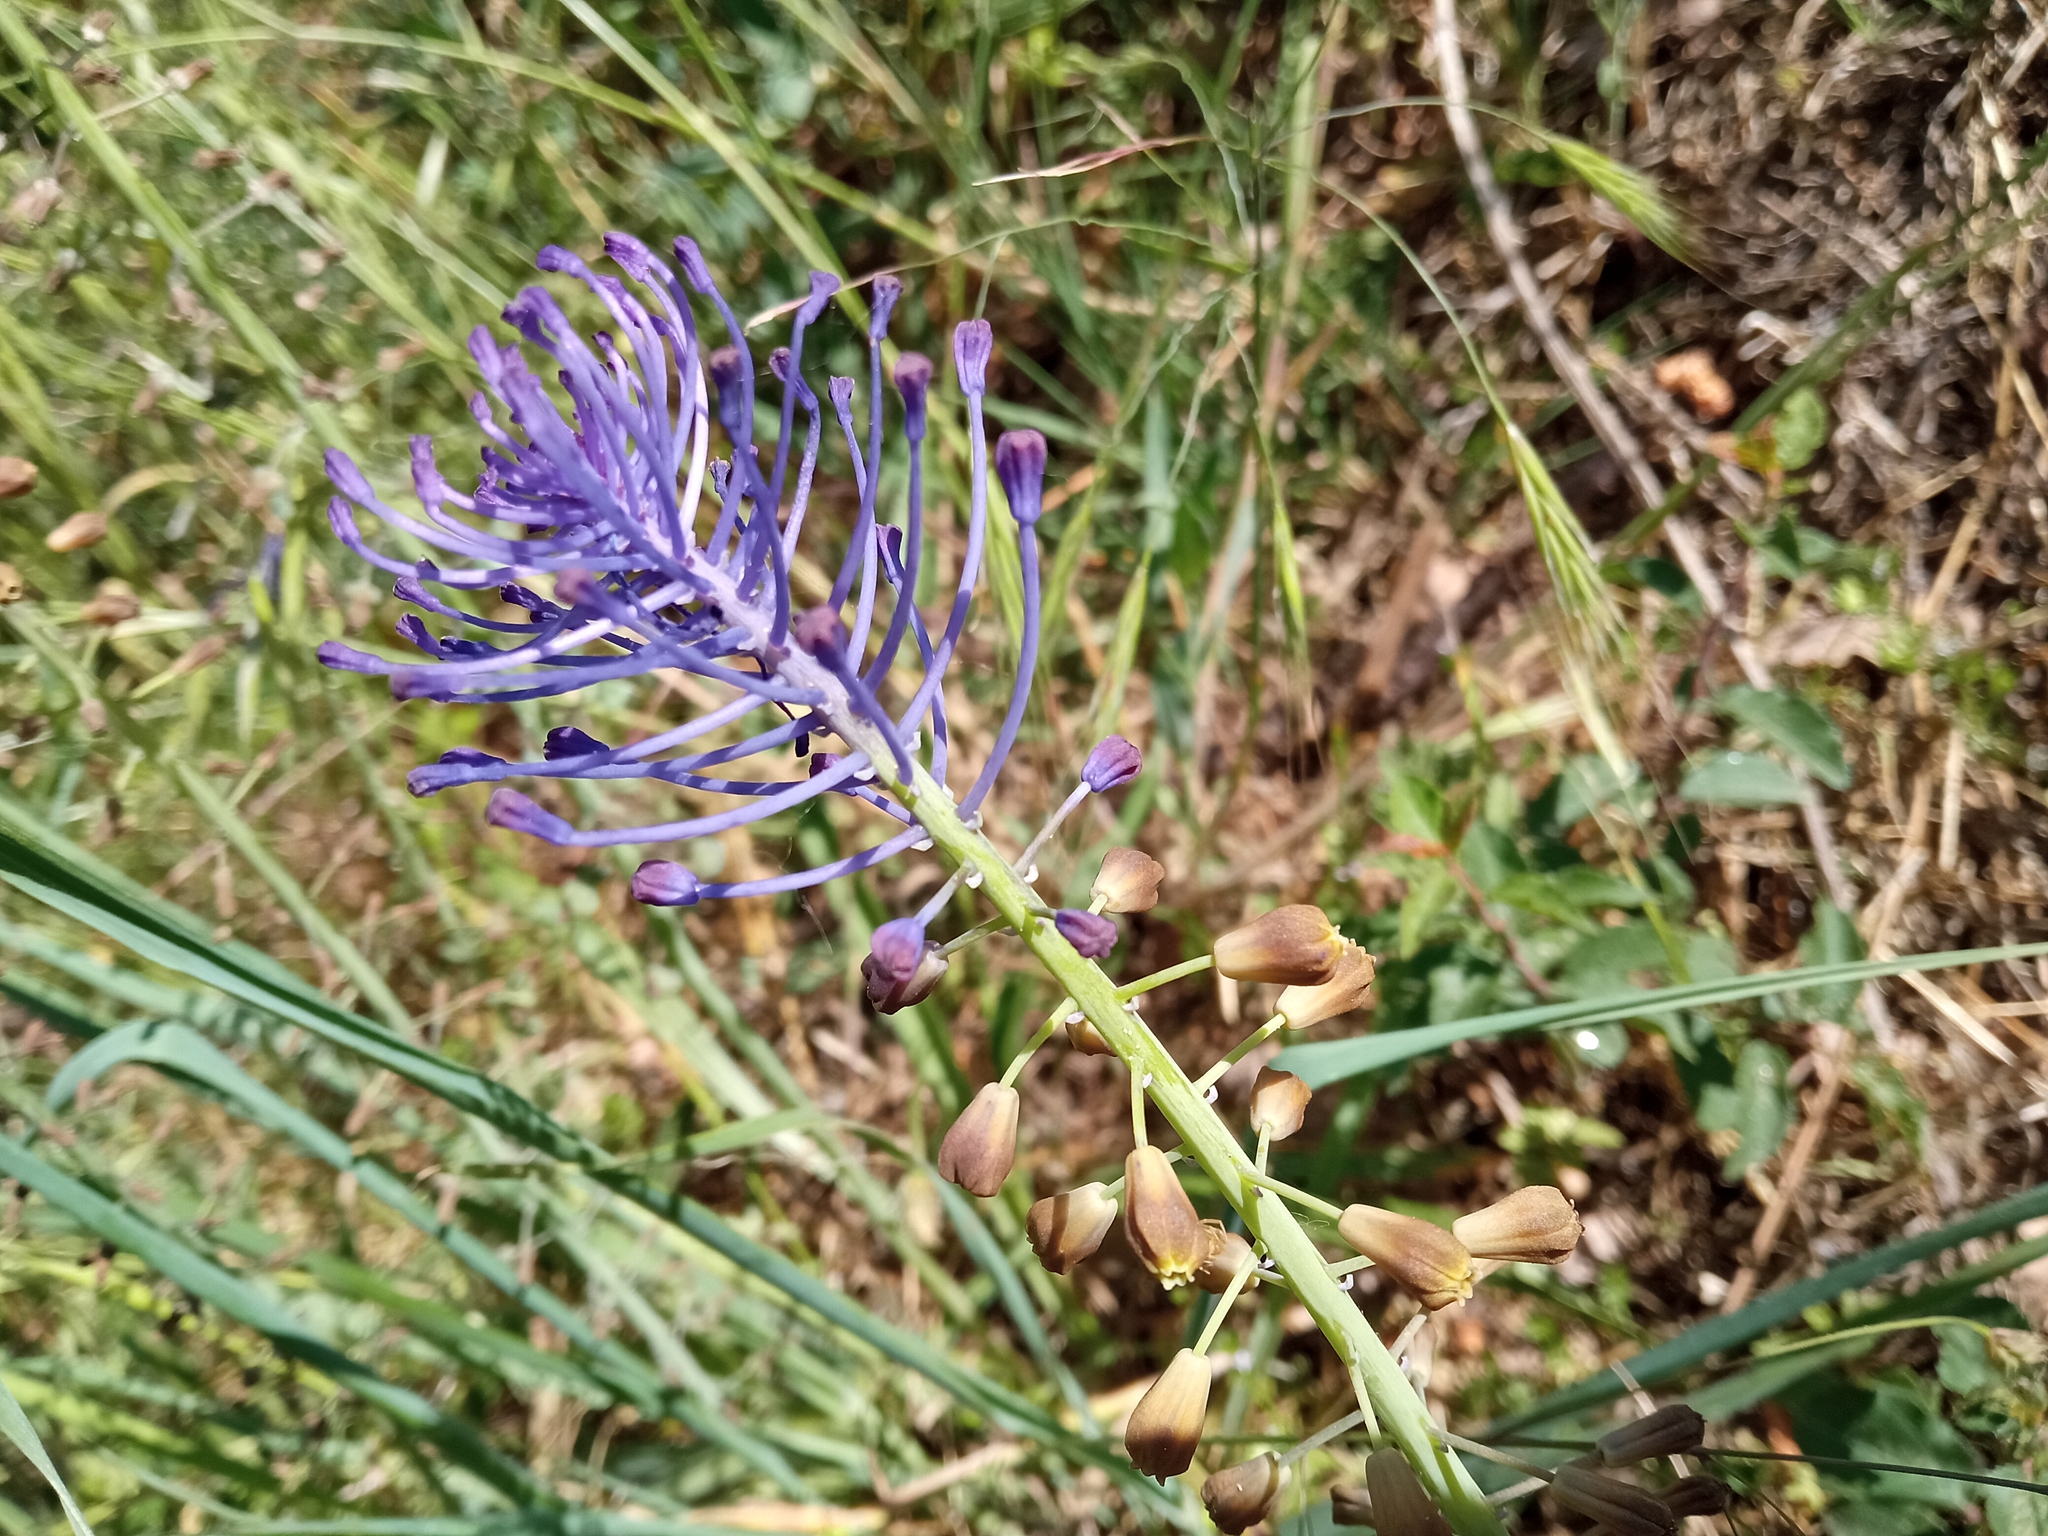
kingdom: Plantae
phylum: Tracheophyta
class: Liliopsida
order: Asparagales
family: Asparagaceae
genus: Muscari
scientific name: Muscari comosum
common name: Tassel hyacinth
